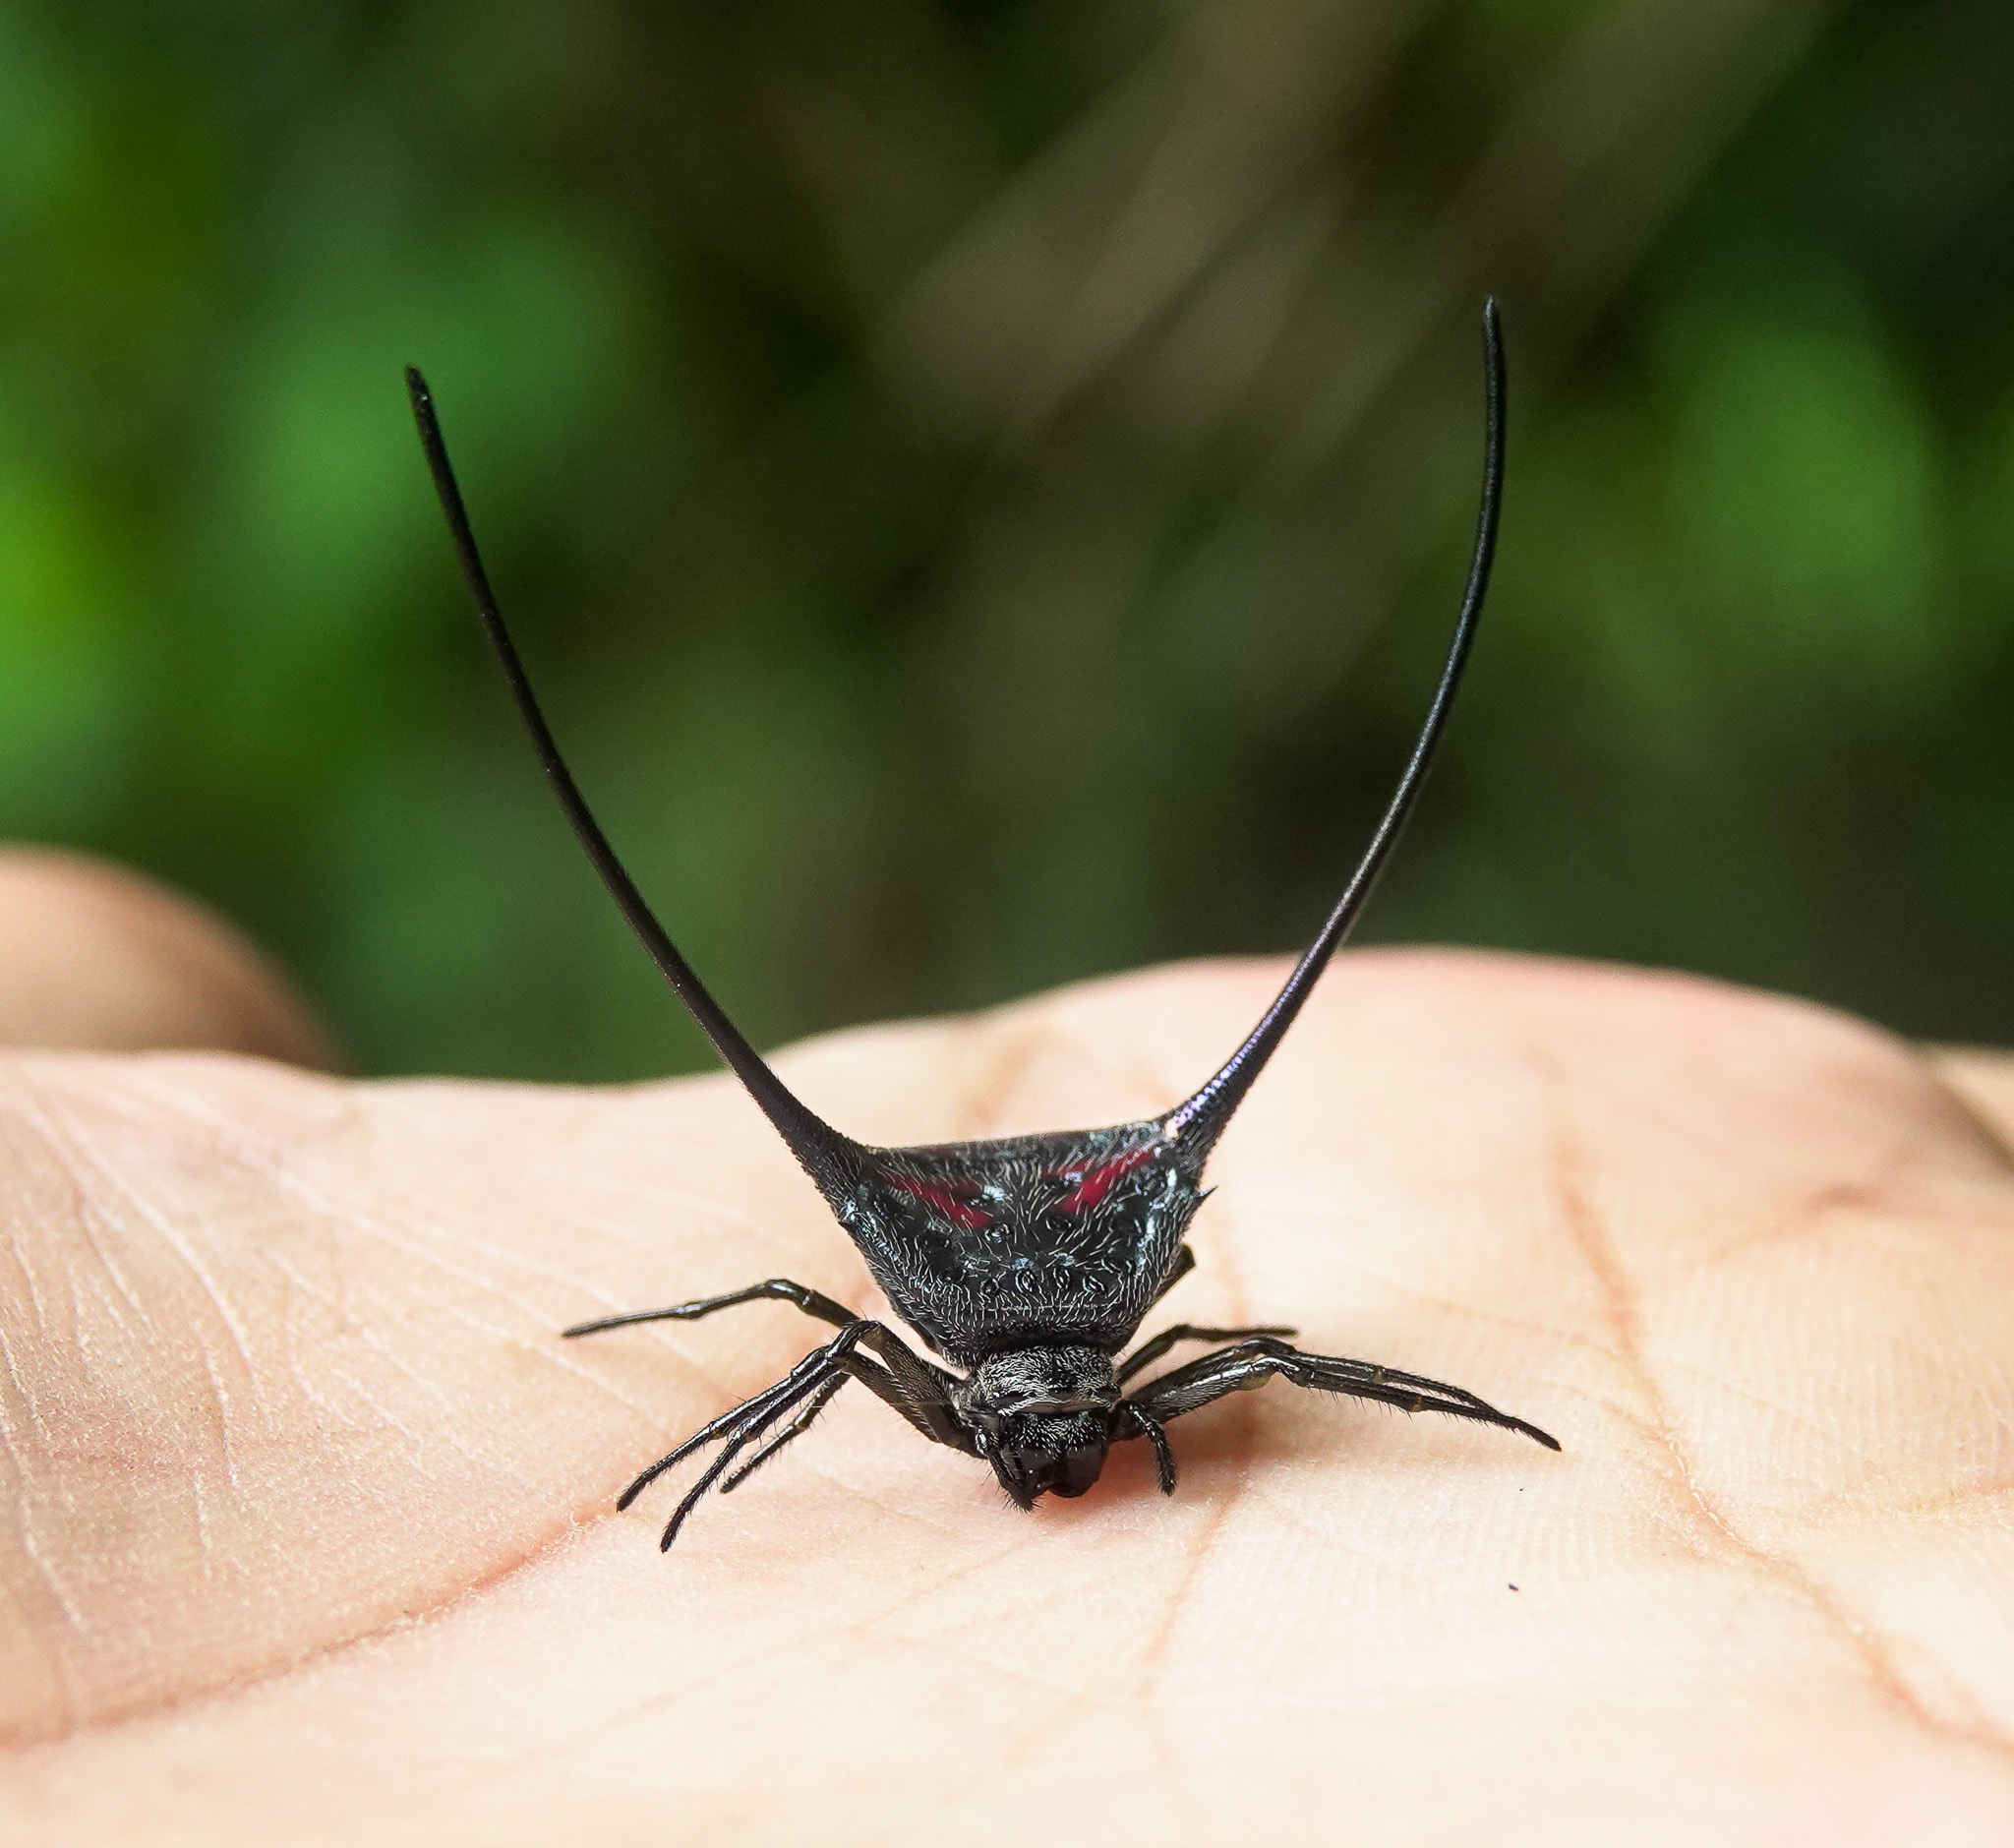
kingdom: Animalia
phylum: Arthropoda
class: Arachnida
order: Araneae
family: Araneidae
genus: Macracantha
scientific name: Macracantha arcuata
